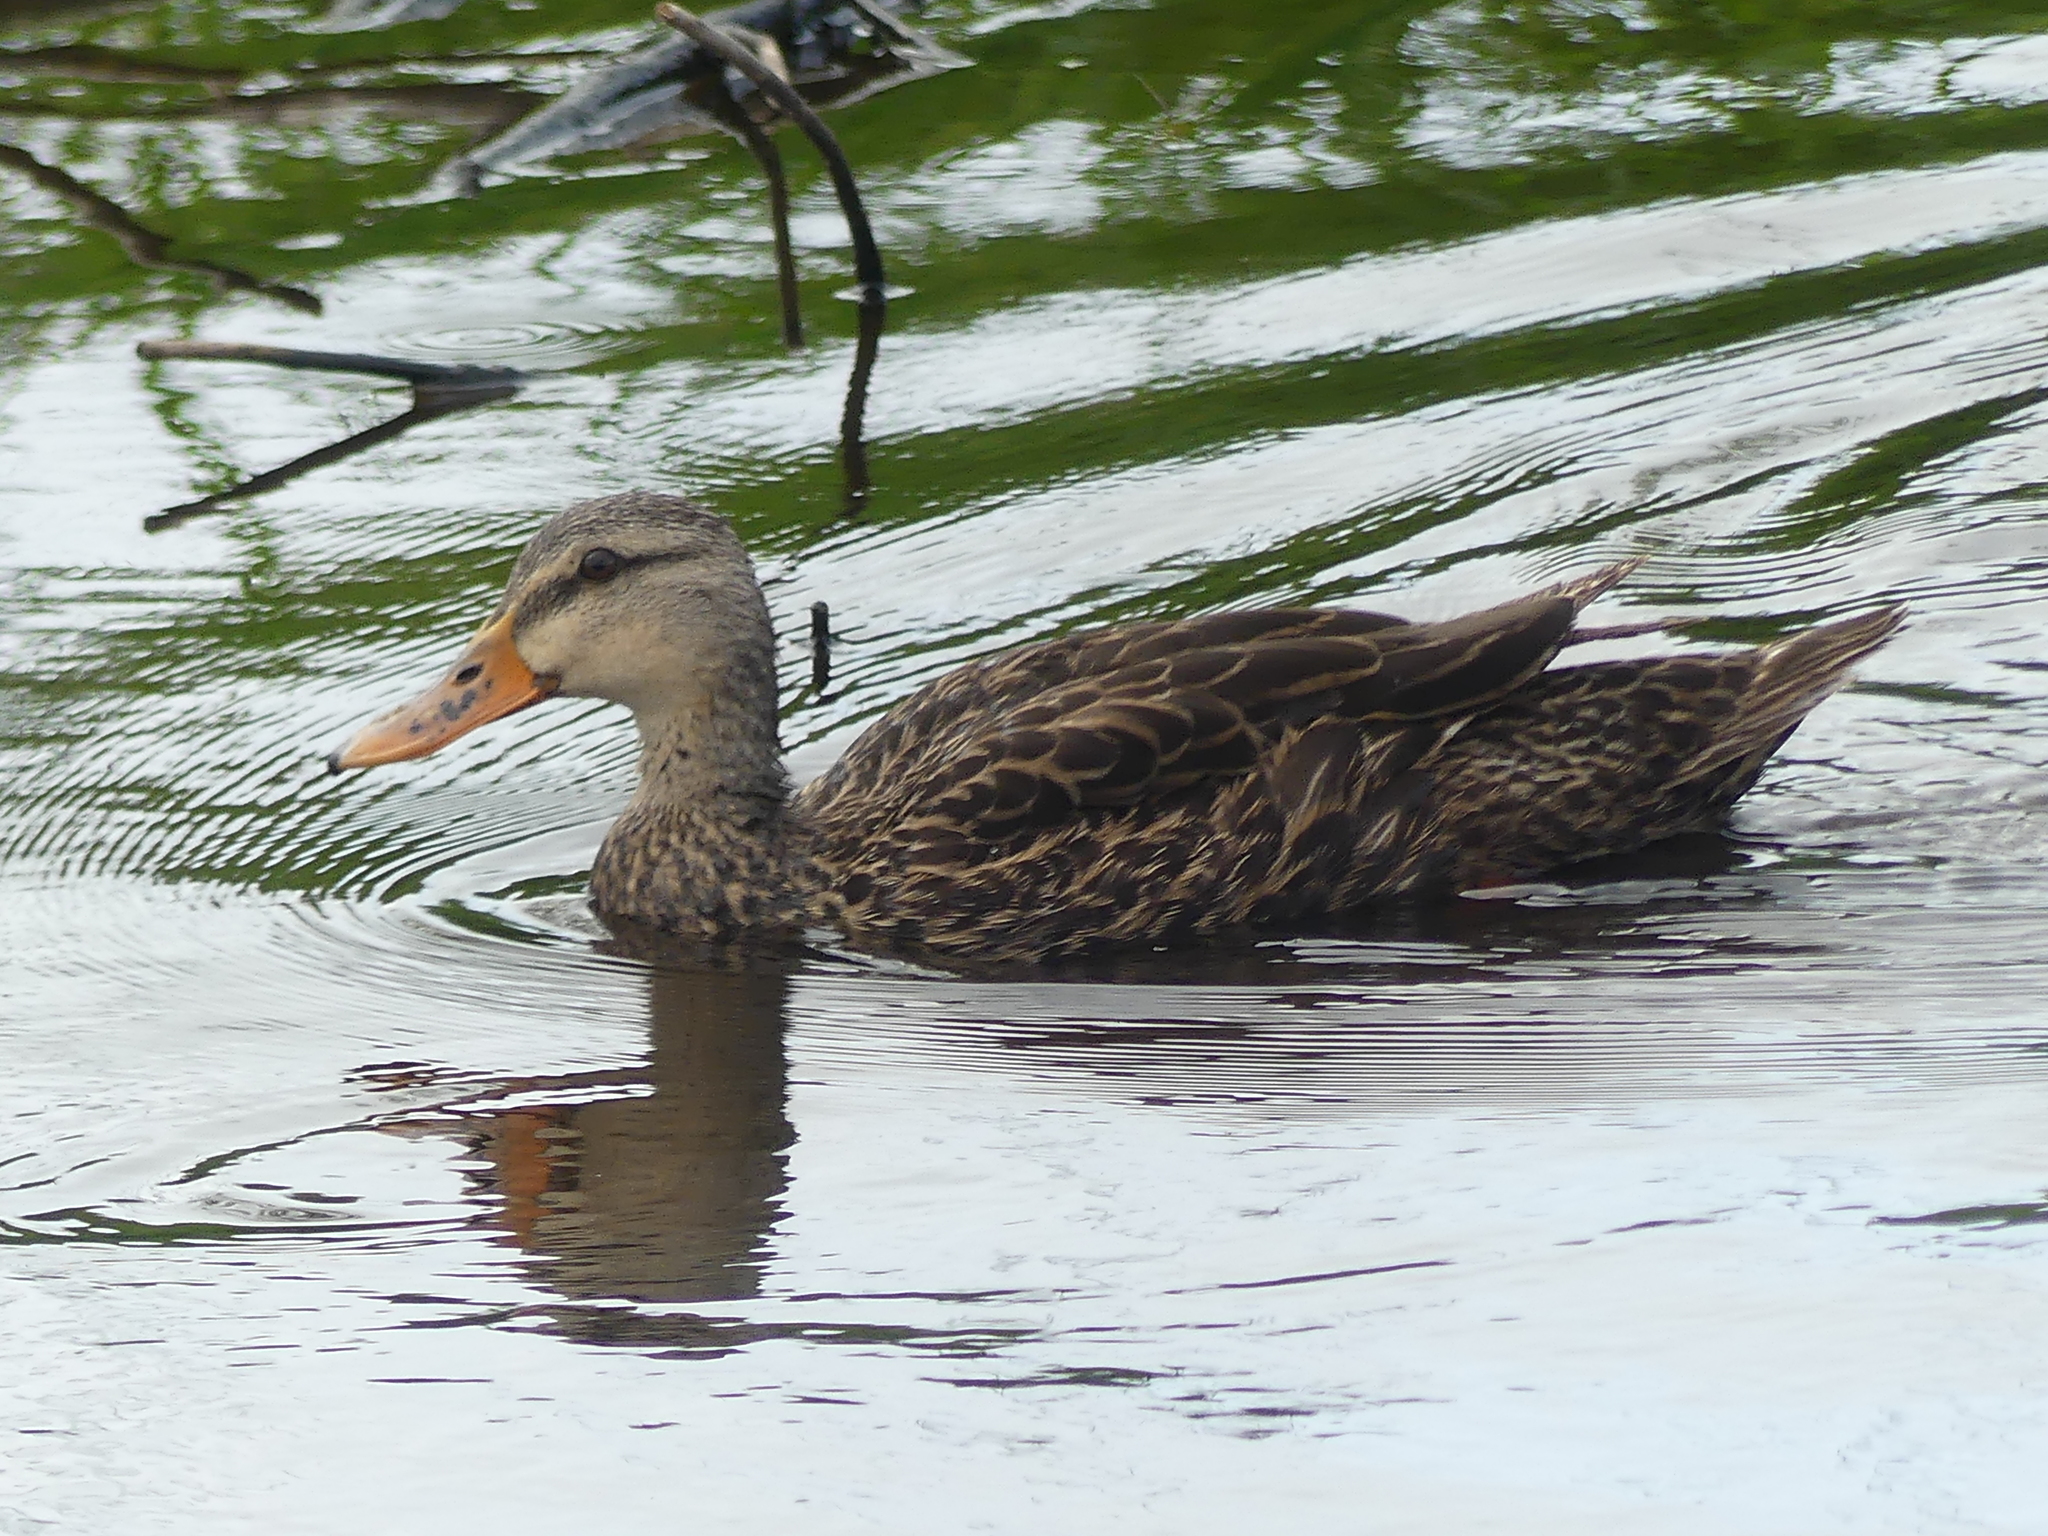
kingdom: Animalia
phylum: Chordata
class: Aves
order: Anseriformes
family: Anatidae
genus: Anas
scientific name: Anas fulvigula
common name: Mottled duck
